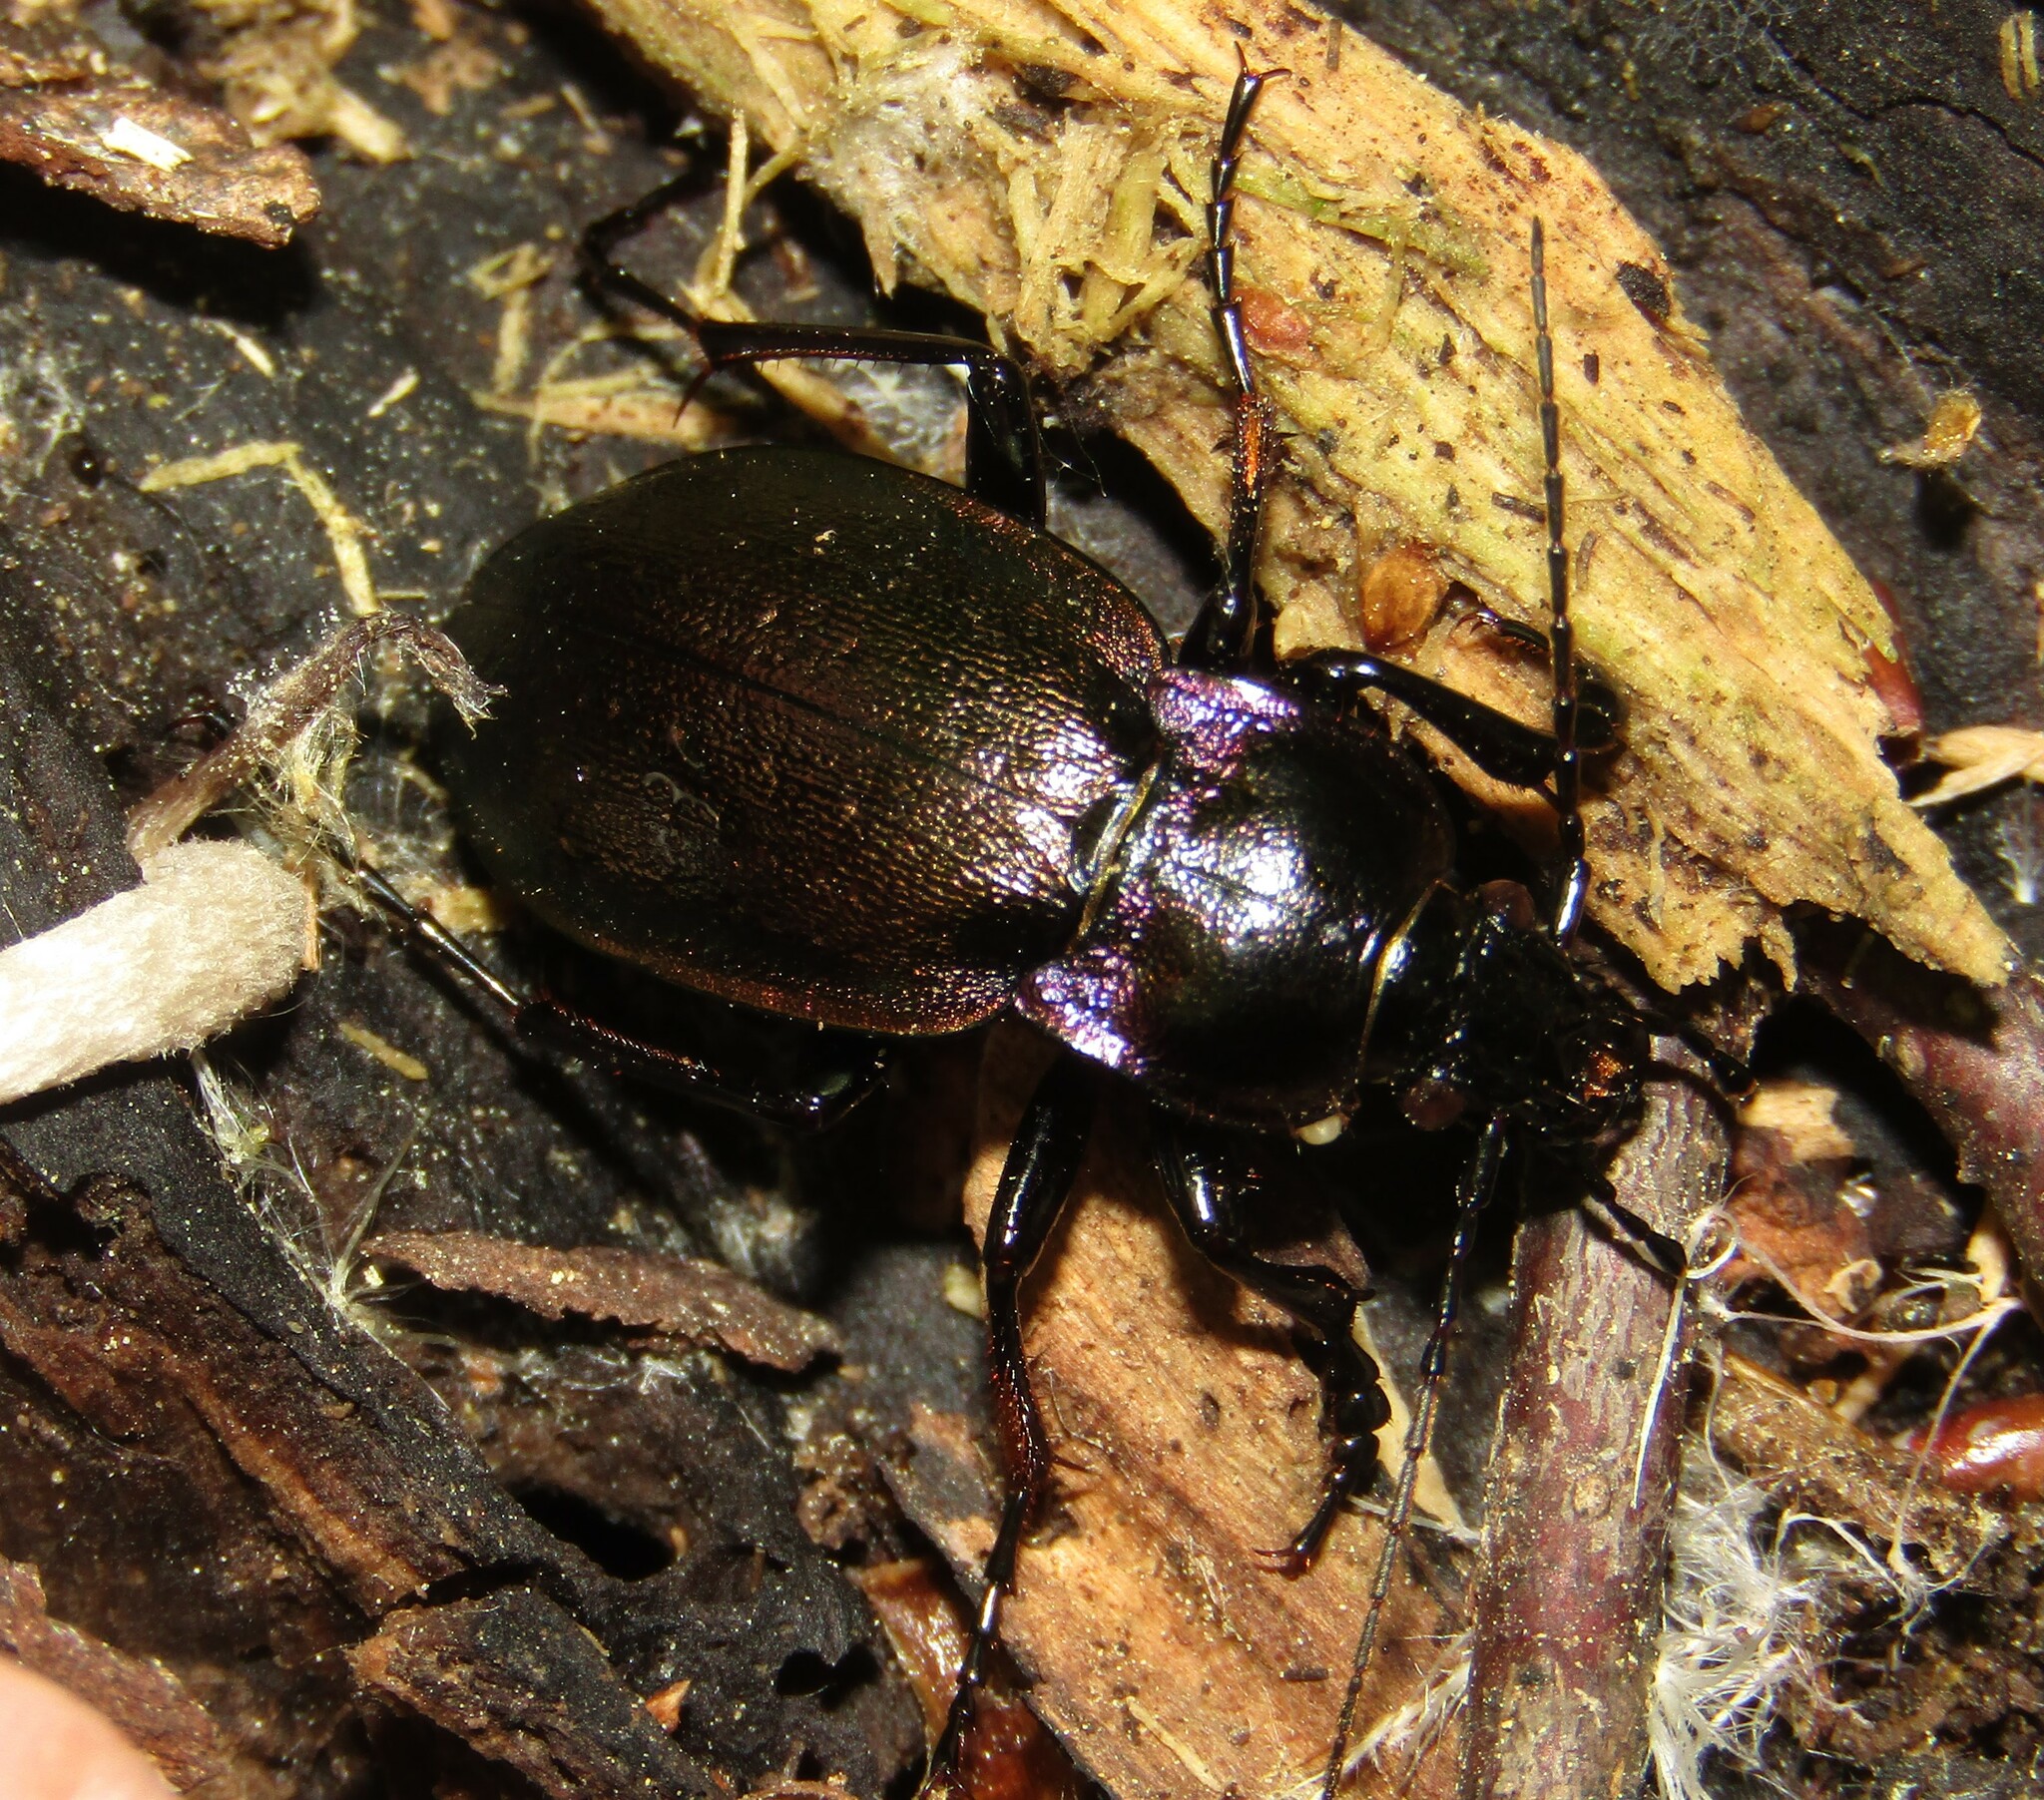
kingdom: Animalia
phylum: Arthropoda
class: Insecta
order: Coleoptera
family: Carabidae
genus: Carabus
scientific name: Carabus nemoralis
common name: European ground beetle
